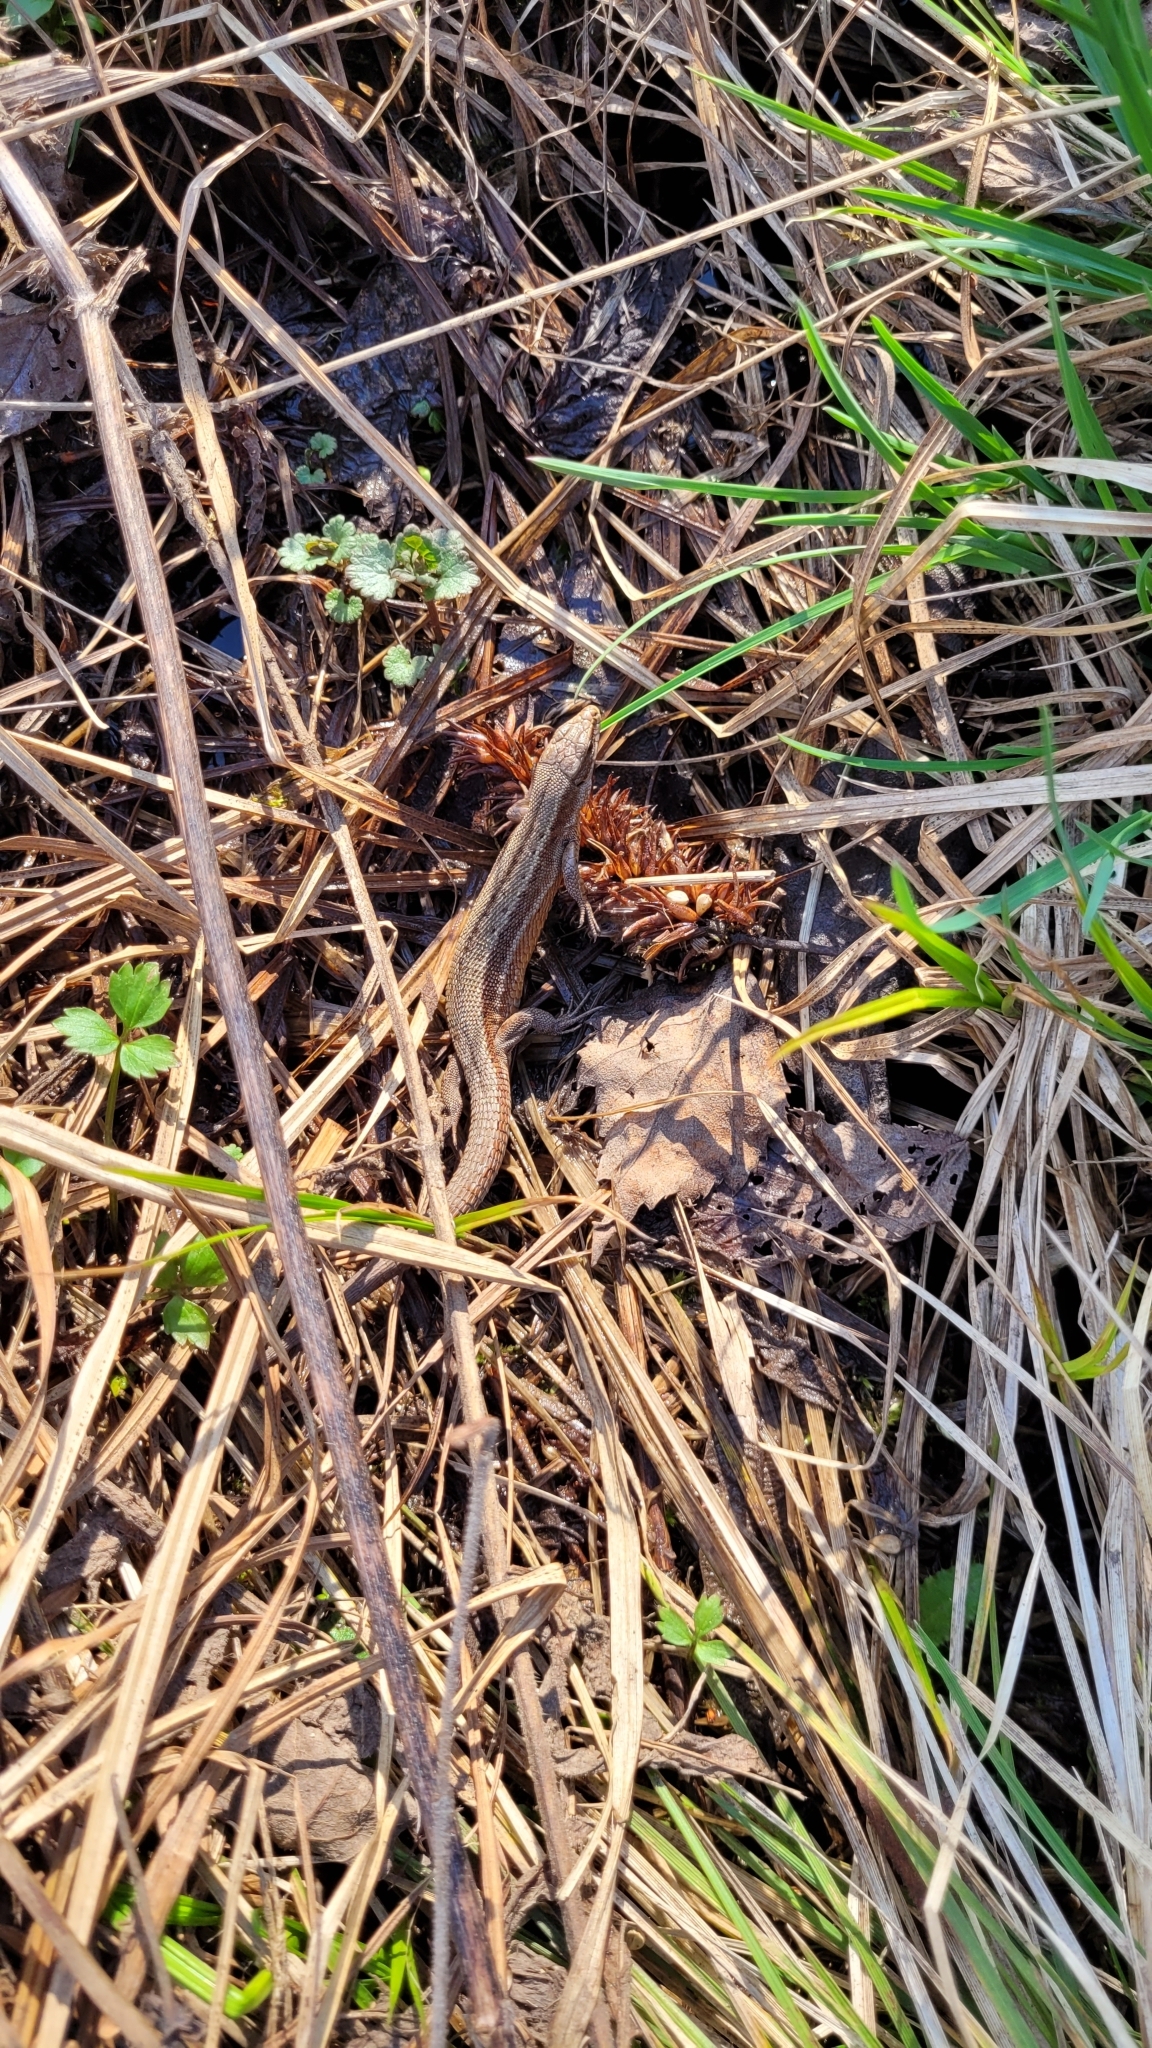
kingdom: Animalia
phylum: Chordata
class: Squamata
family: Lacertidae
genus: Zootoca
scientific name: Zootoca vivipara
